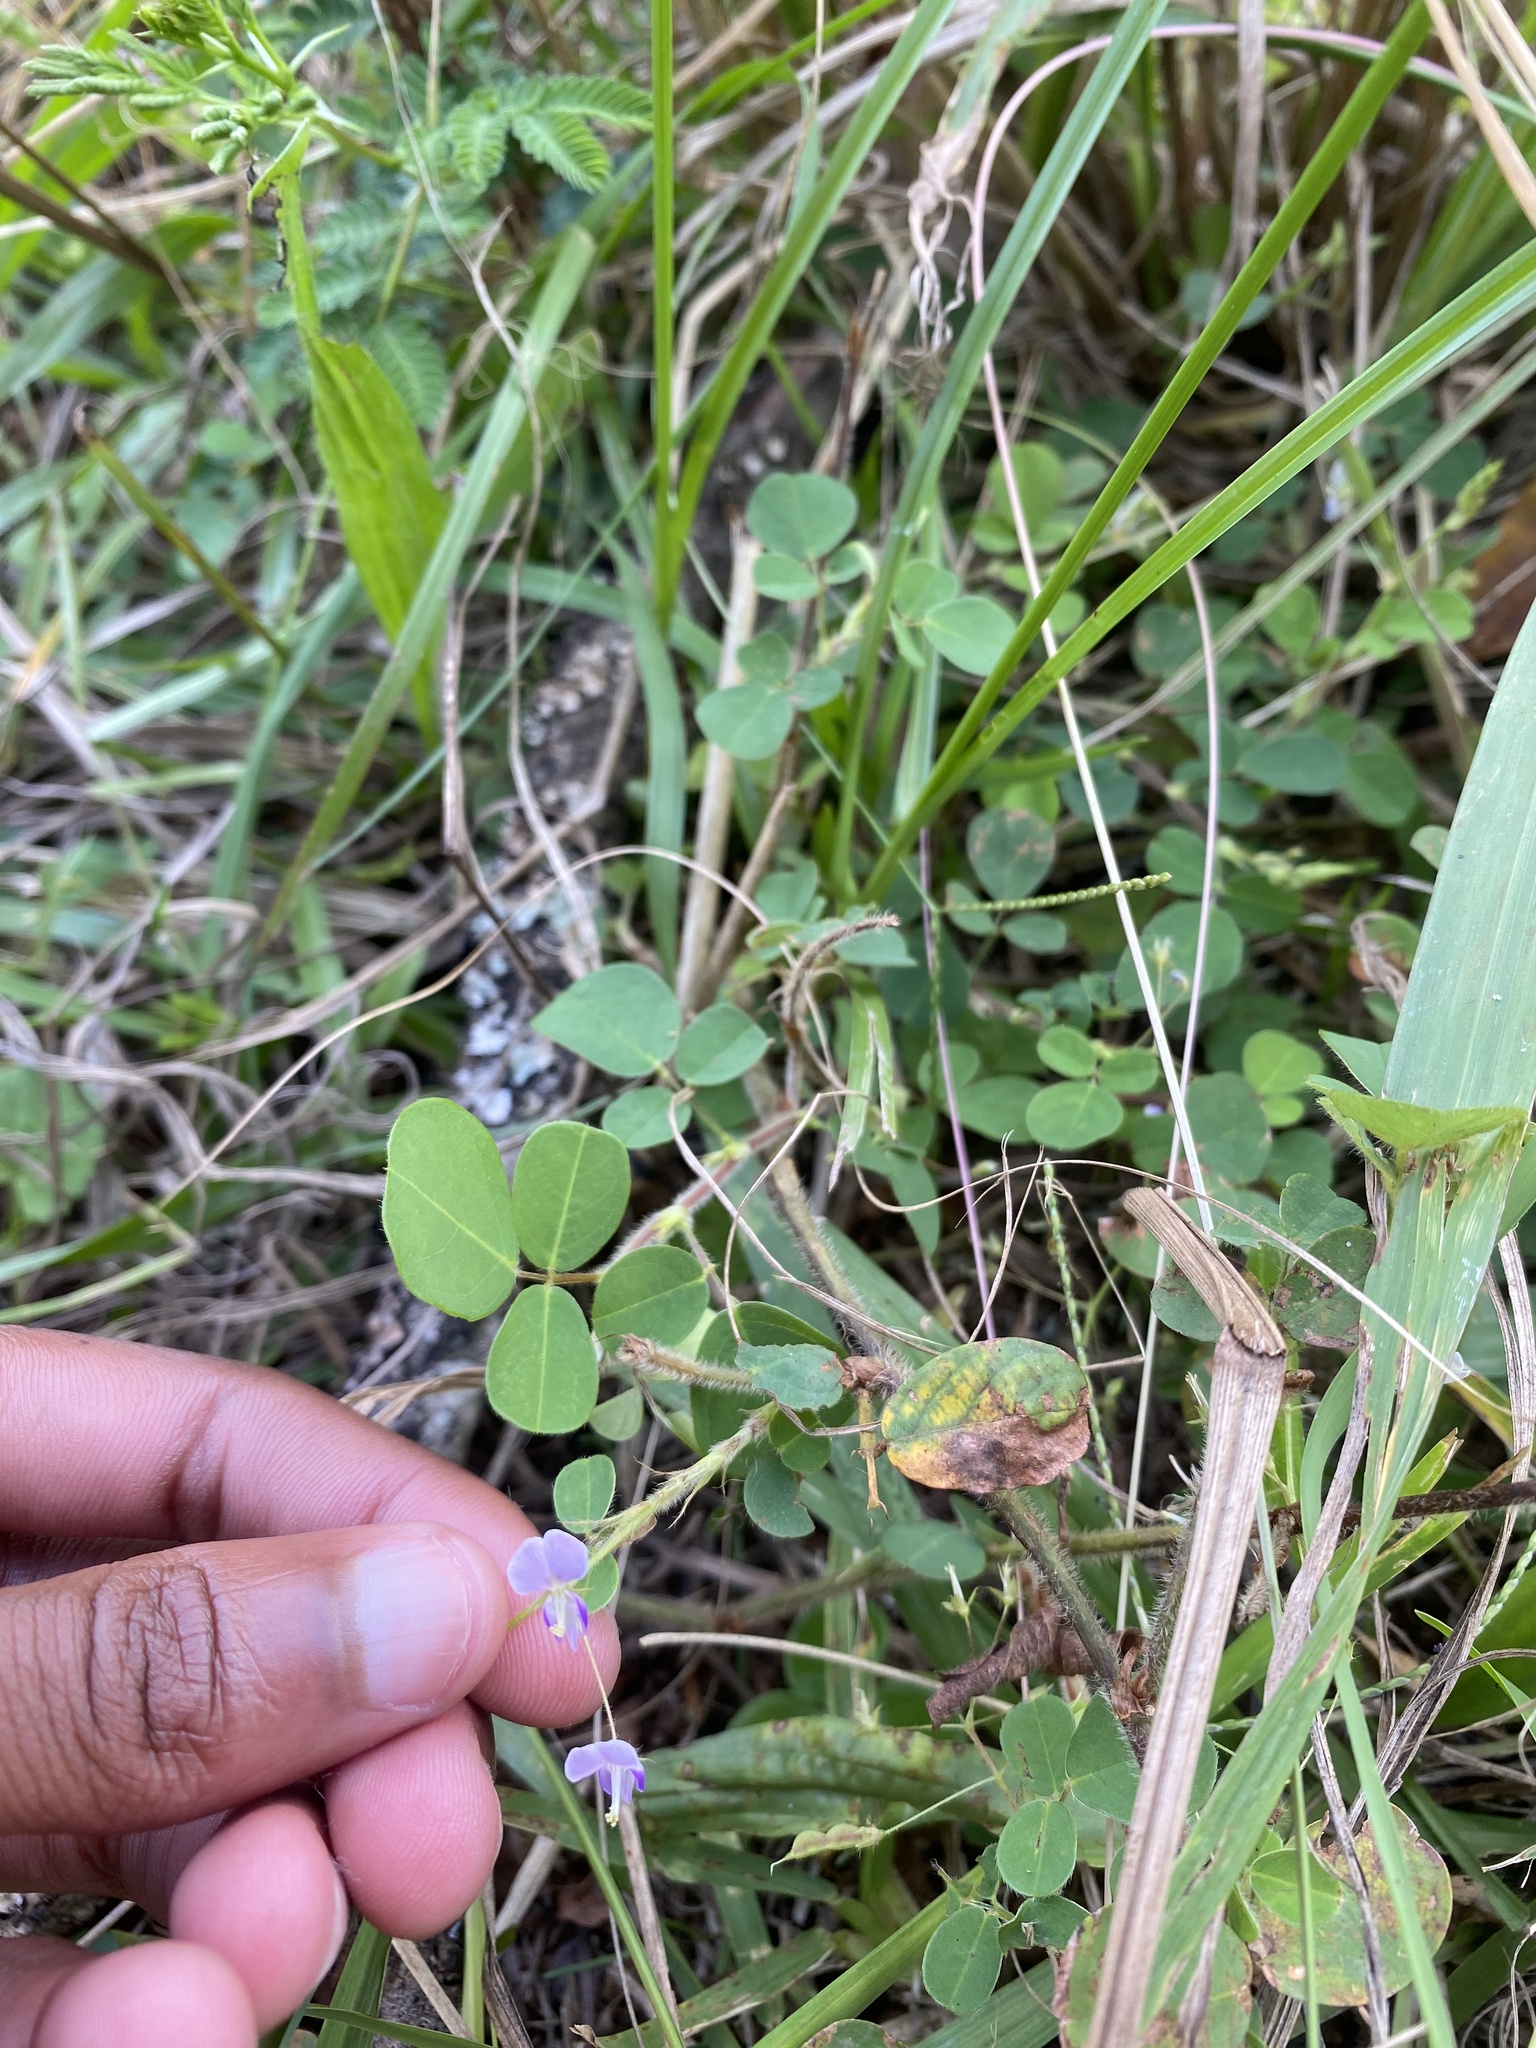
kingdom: Plantae
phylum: Tracheophyta
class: Magnoliopsida
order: Fabales
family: Fabaceae
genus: Dumasia
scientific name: Dumasia villosa
